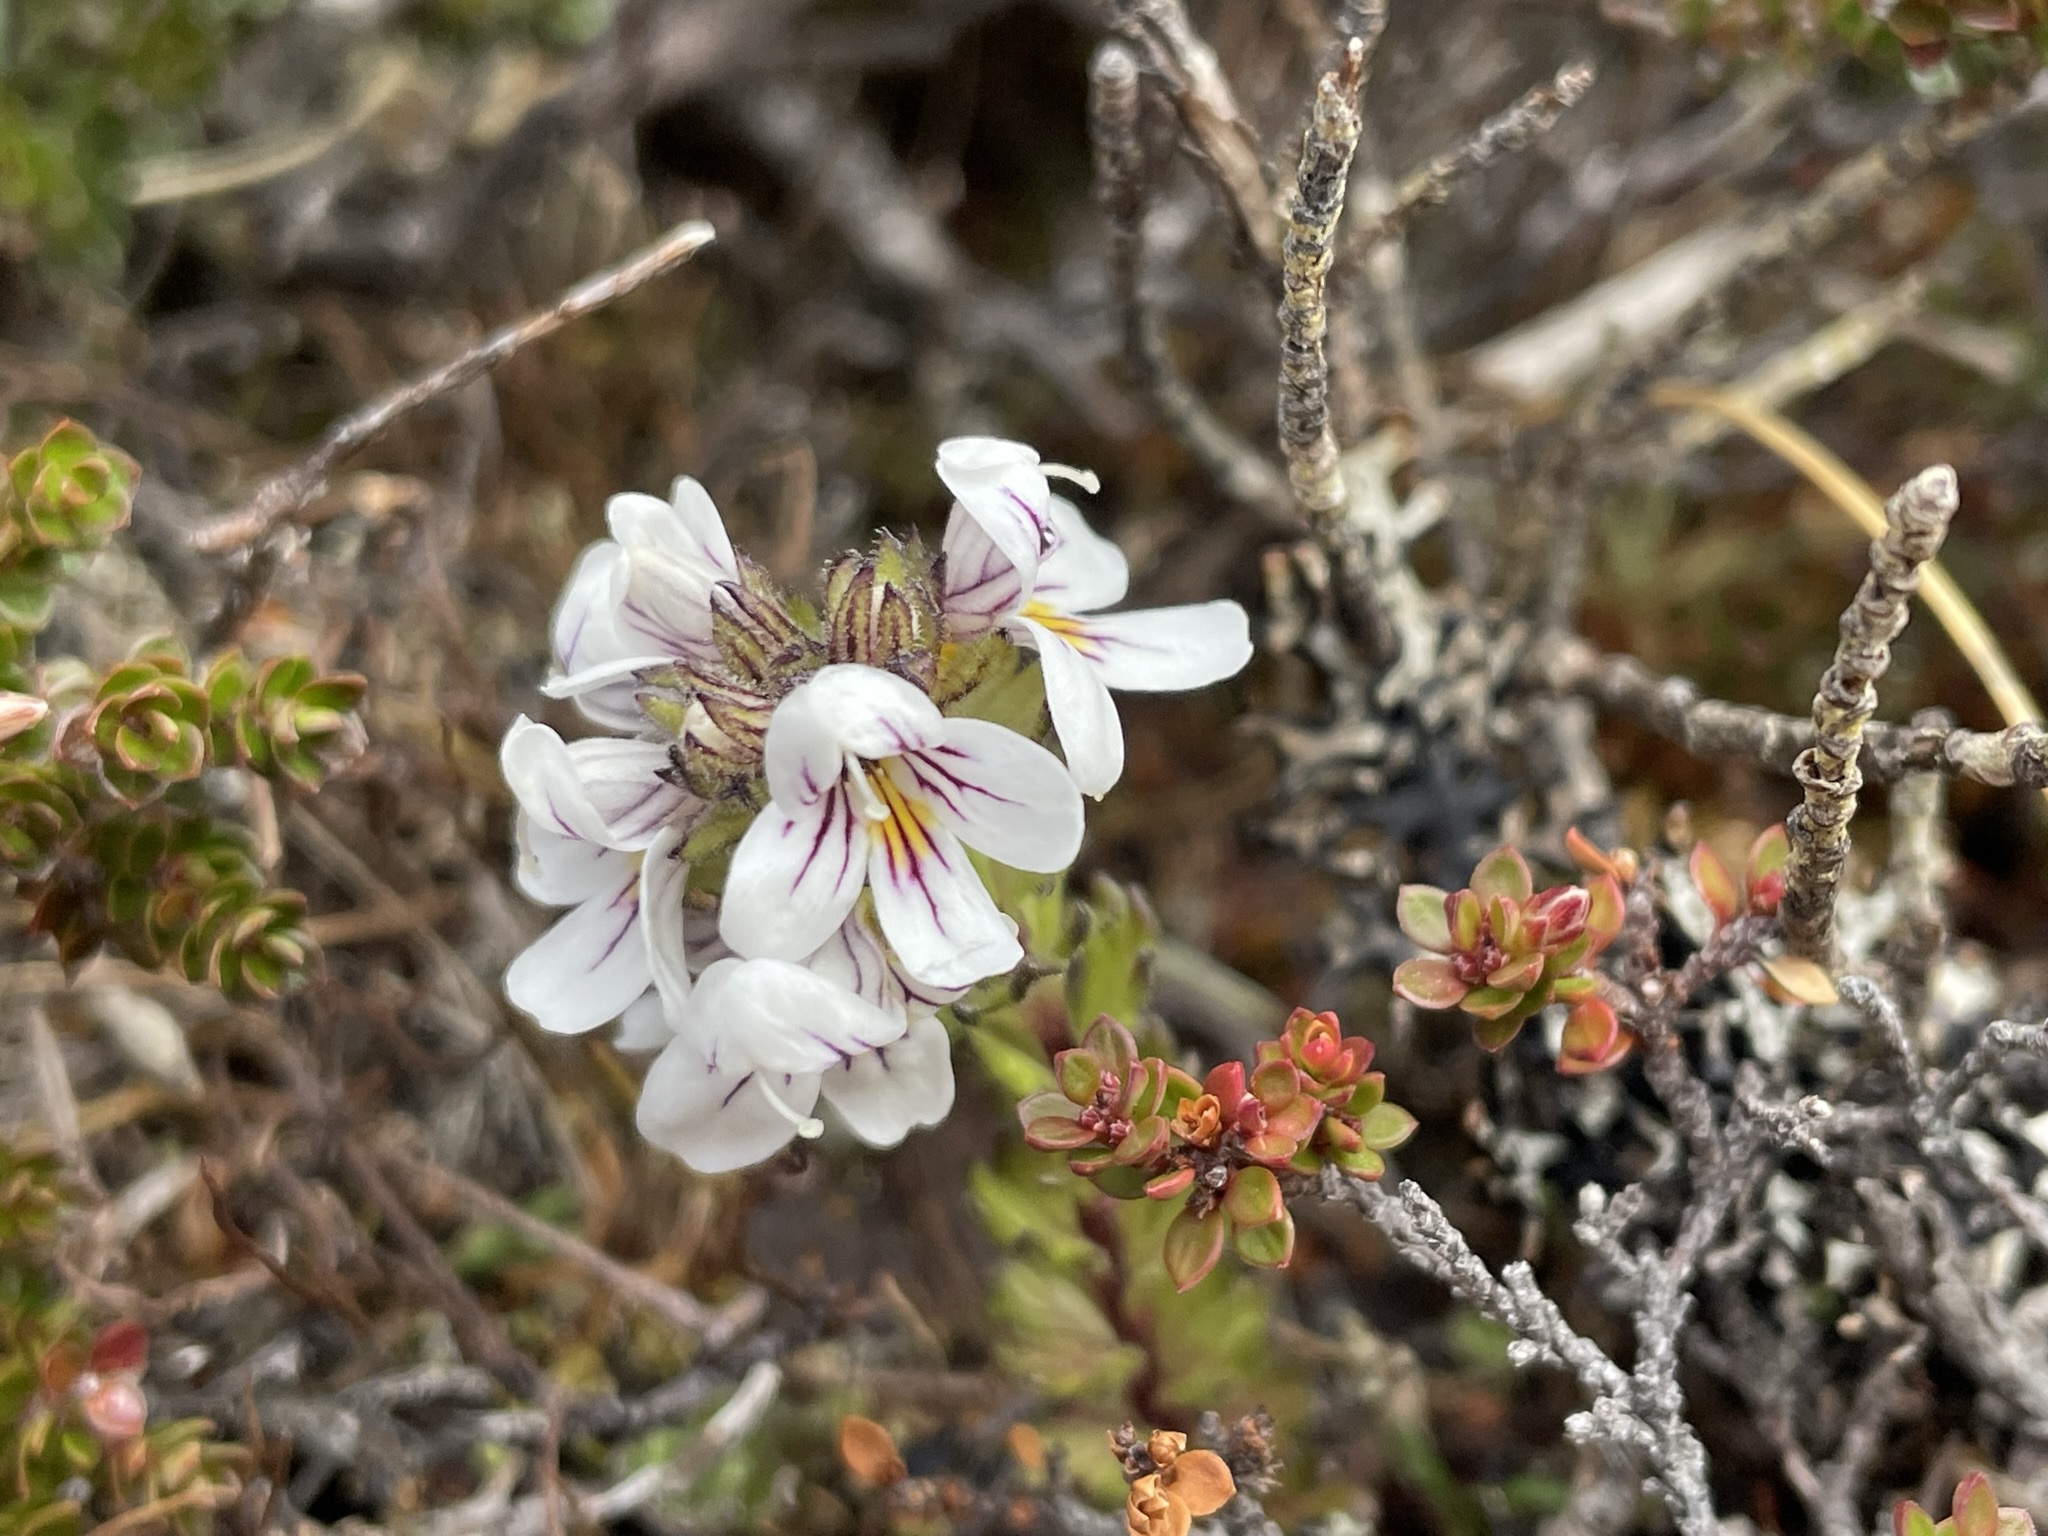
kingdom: Plantae
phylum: Tracheophyta
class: Magnoliopsida
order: Lamiales
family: Orobanchaceae
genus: Euphrasia
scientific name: Euphrasia striata
